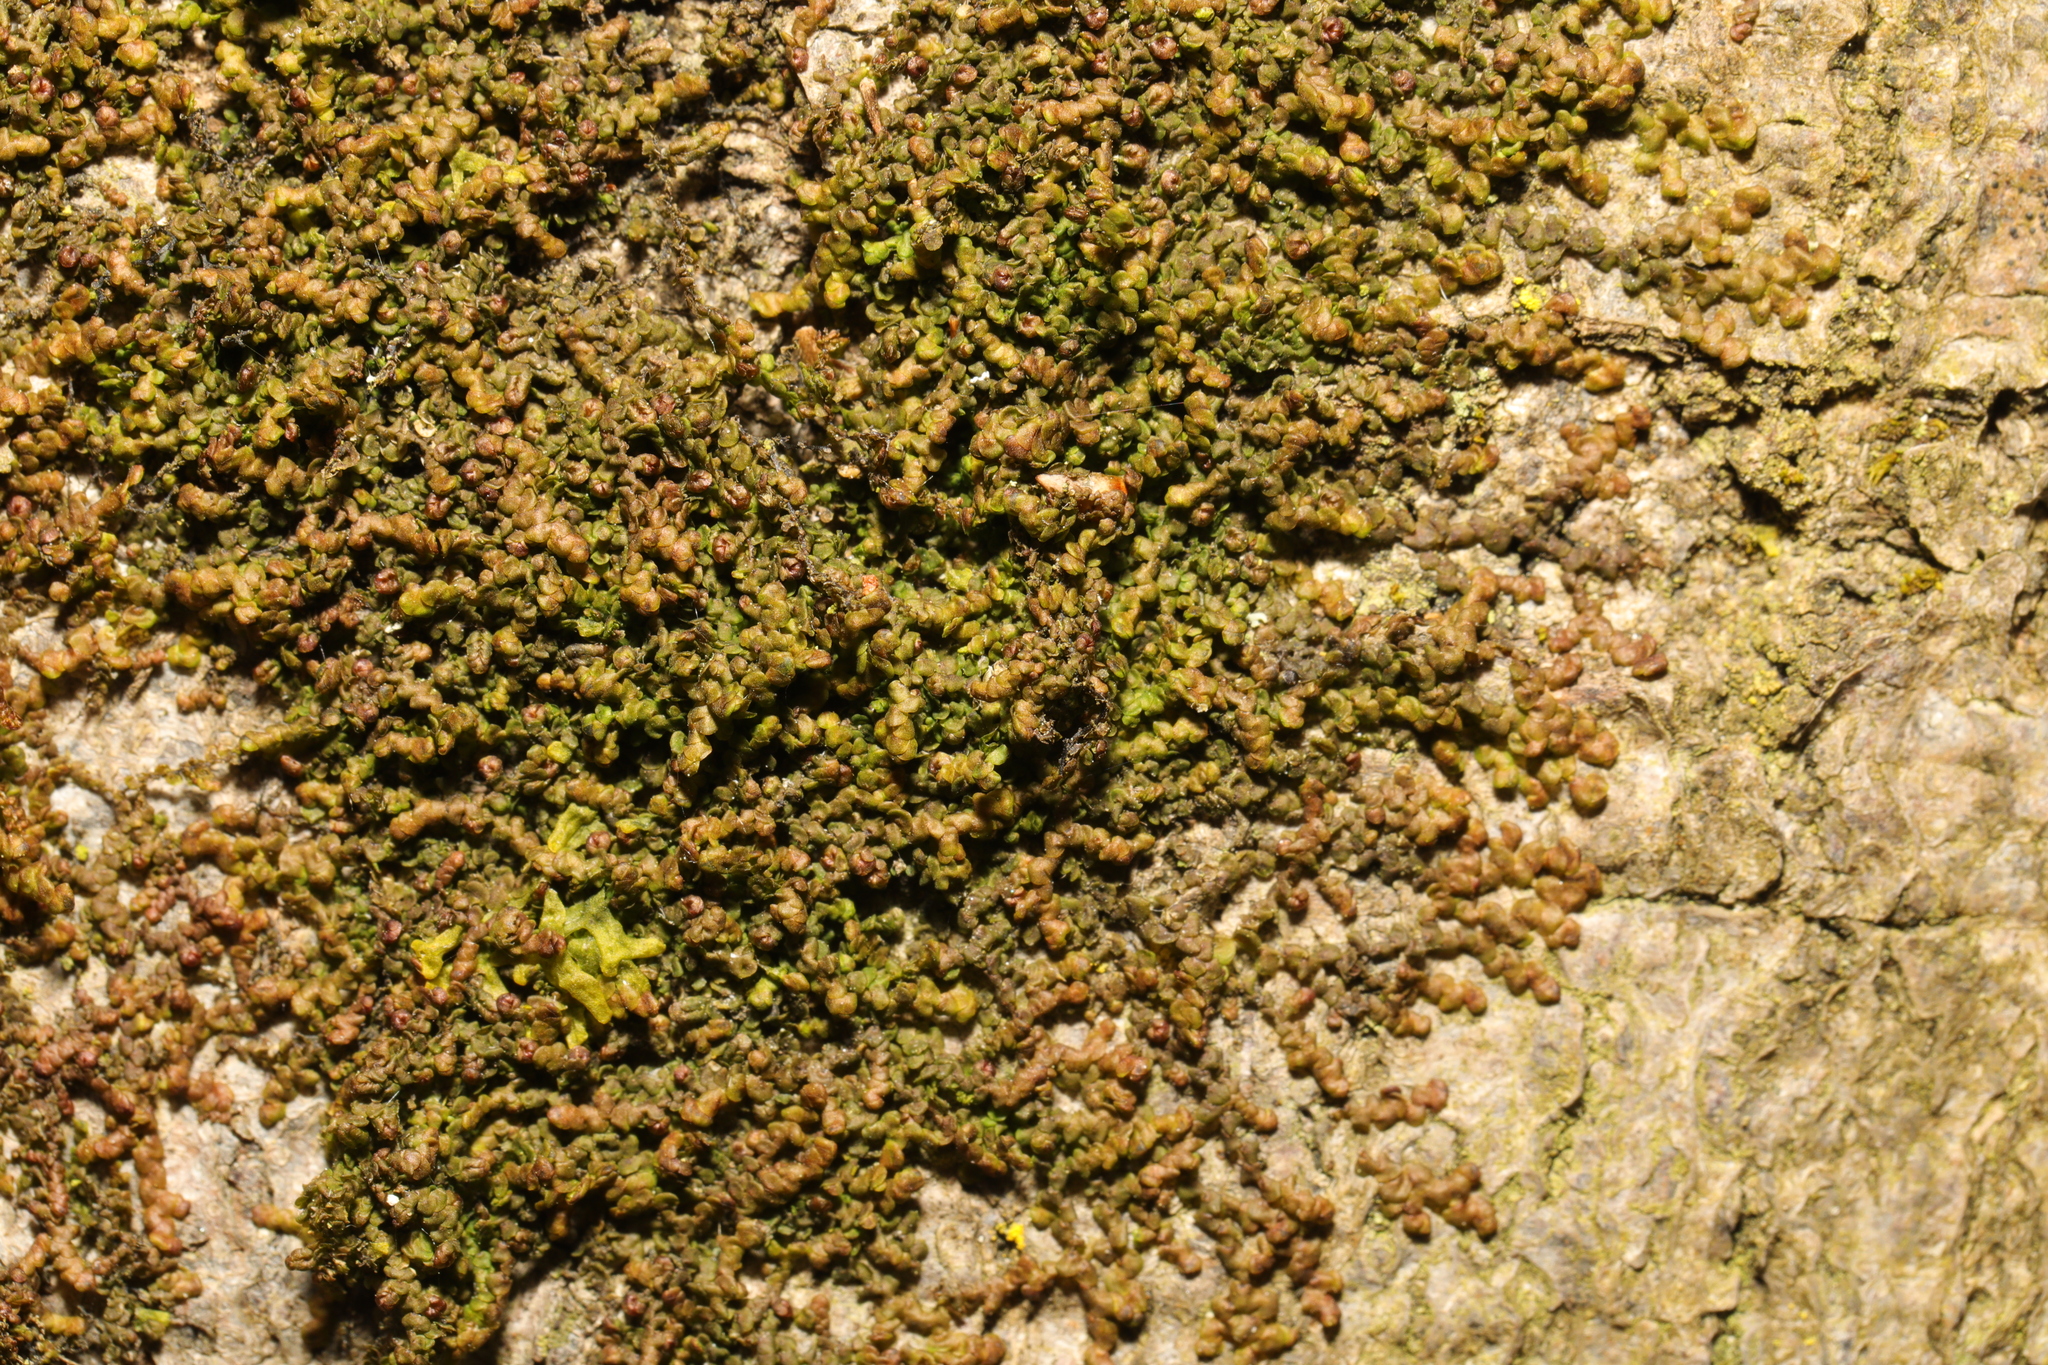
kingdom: Plantae
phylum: Marchantiophyta
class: Jungermanniopsida
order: Porellales
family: Frullaniaceae
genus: Frullania
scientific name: Frullania dilatata
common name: Dilated scalewort
